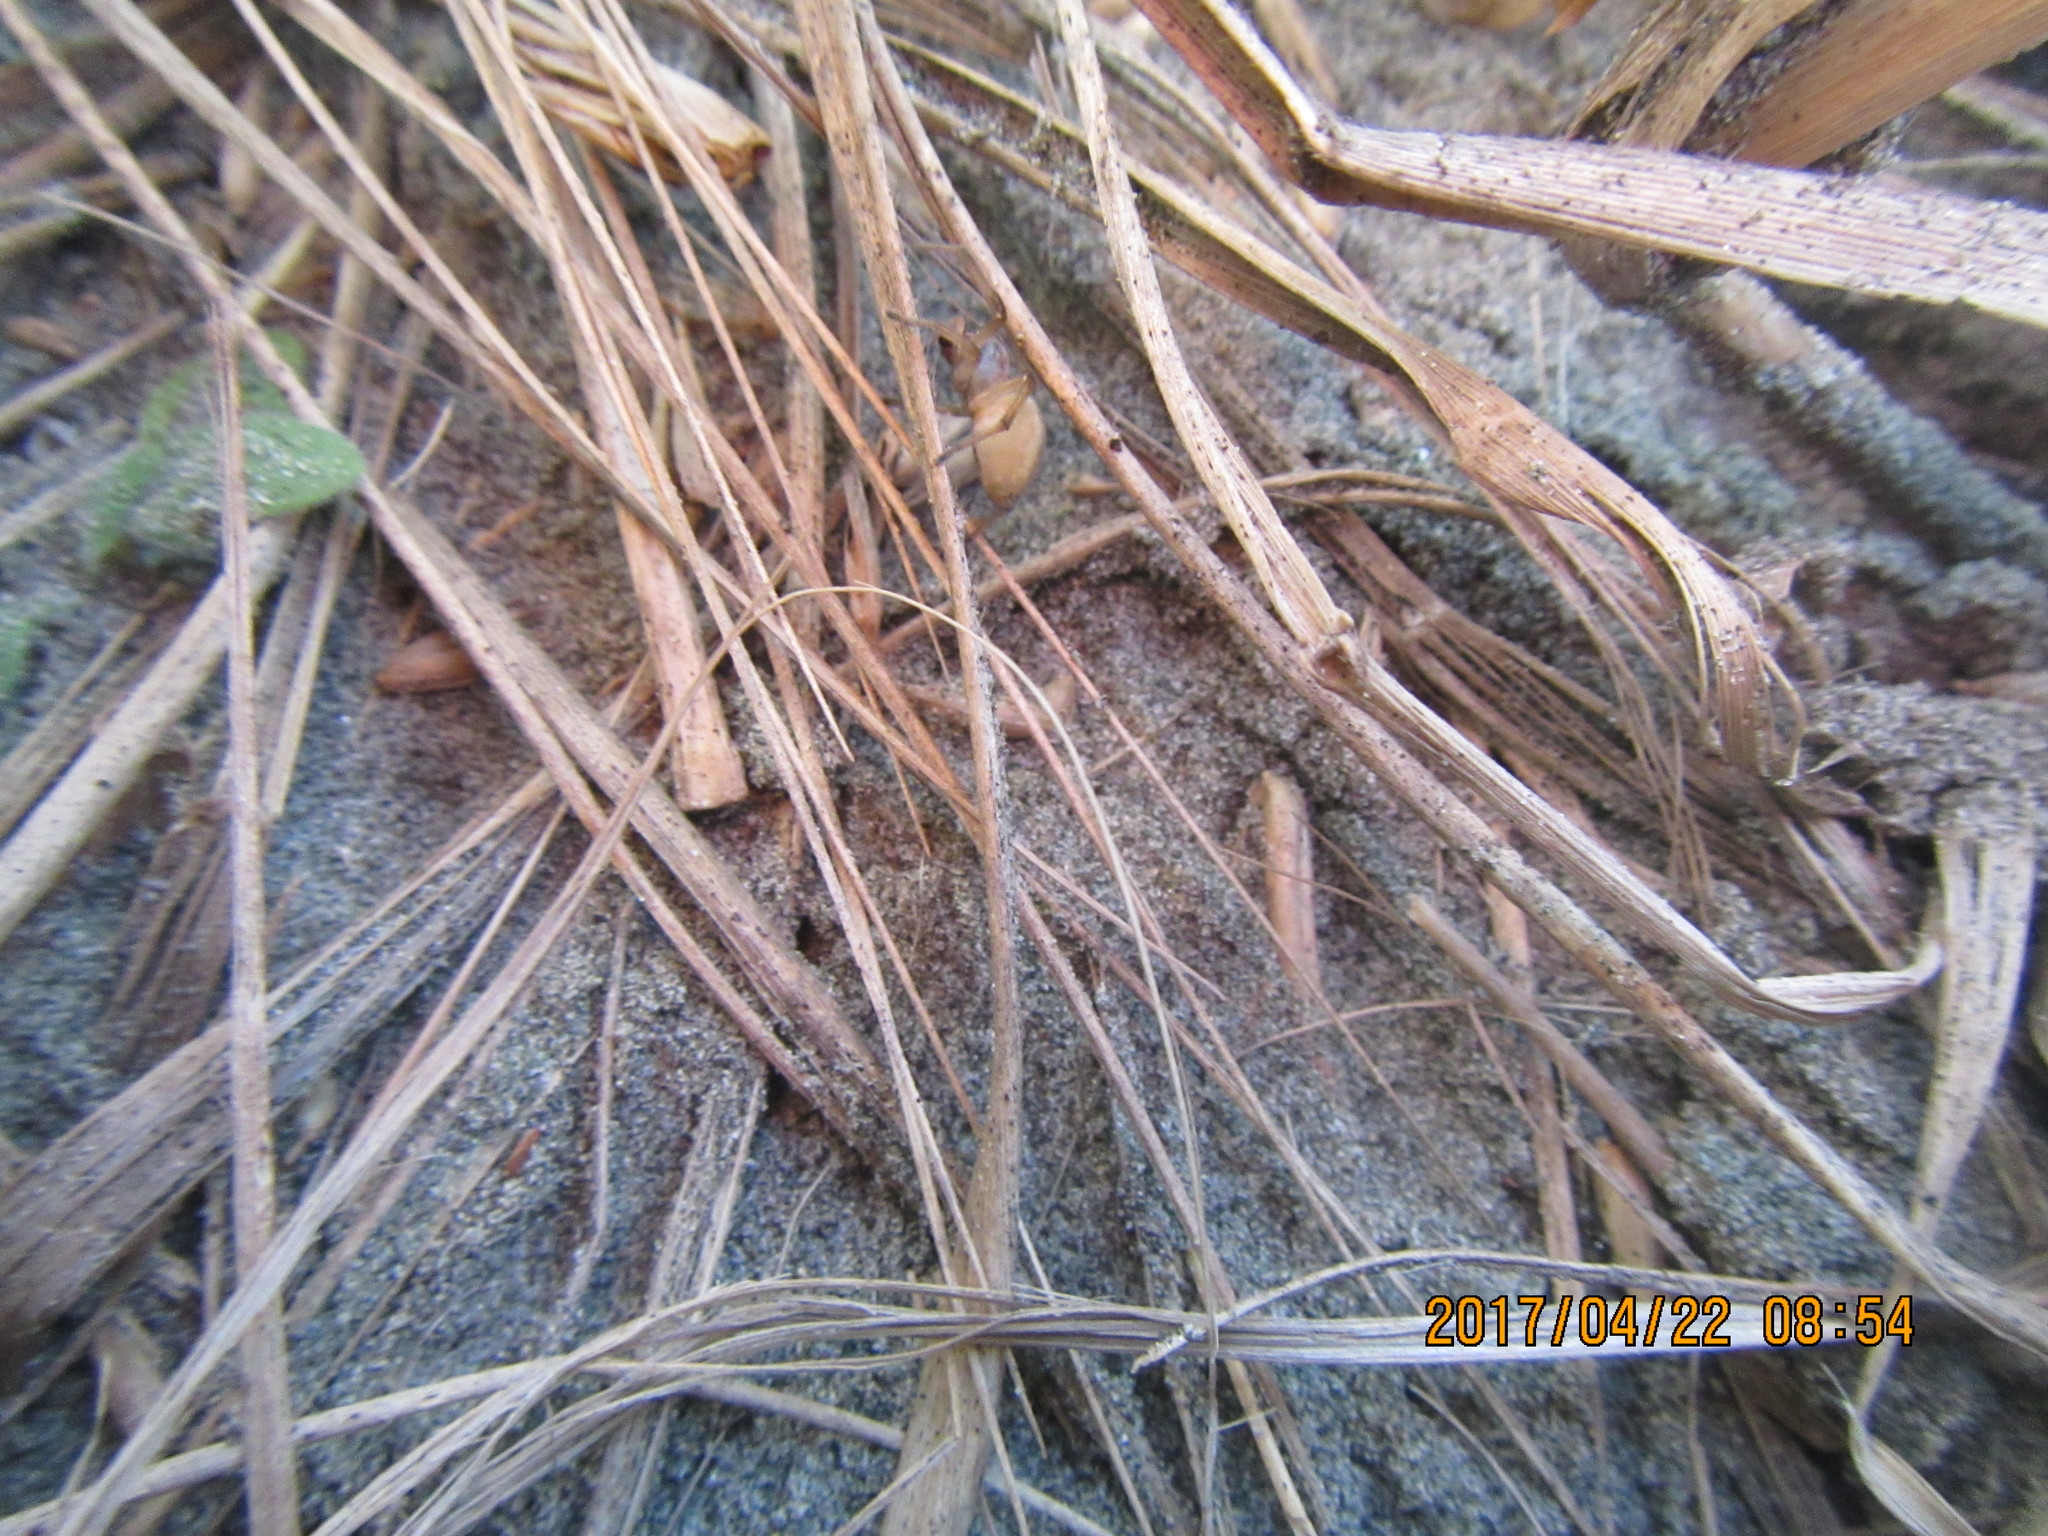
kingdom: Animalia
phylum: Arthropoda
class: Arachnida
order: Araneae
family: Cheiracanthiidae
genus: Eutittha
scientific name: Eutittha stratiotica
